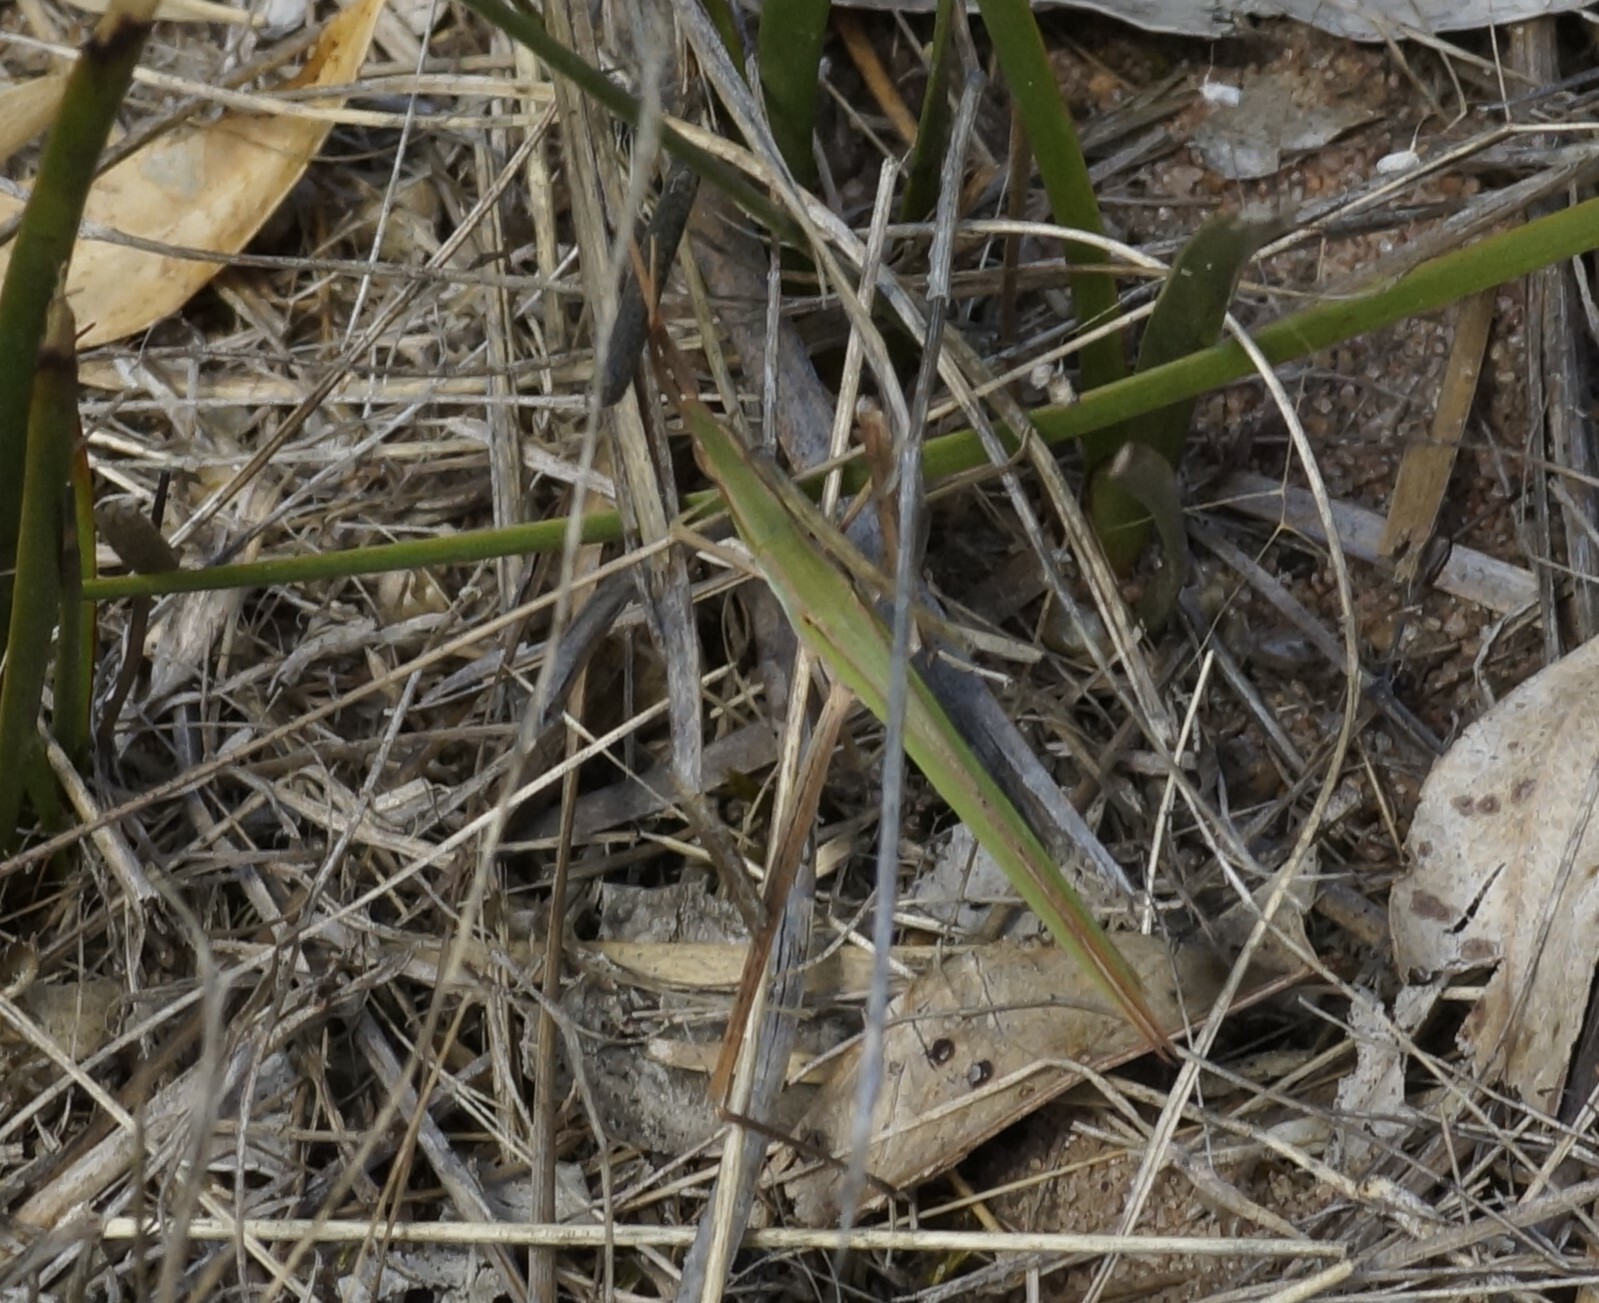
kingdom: Animalia
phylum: Arthropoda
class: Insecta
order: Orthoptera
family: Acrididae
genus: Acrida
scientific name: Acrida conica
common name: Giant green slantface
